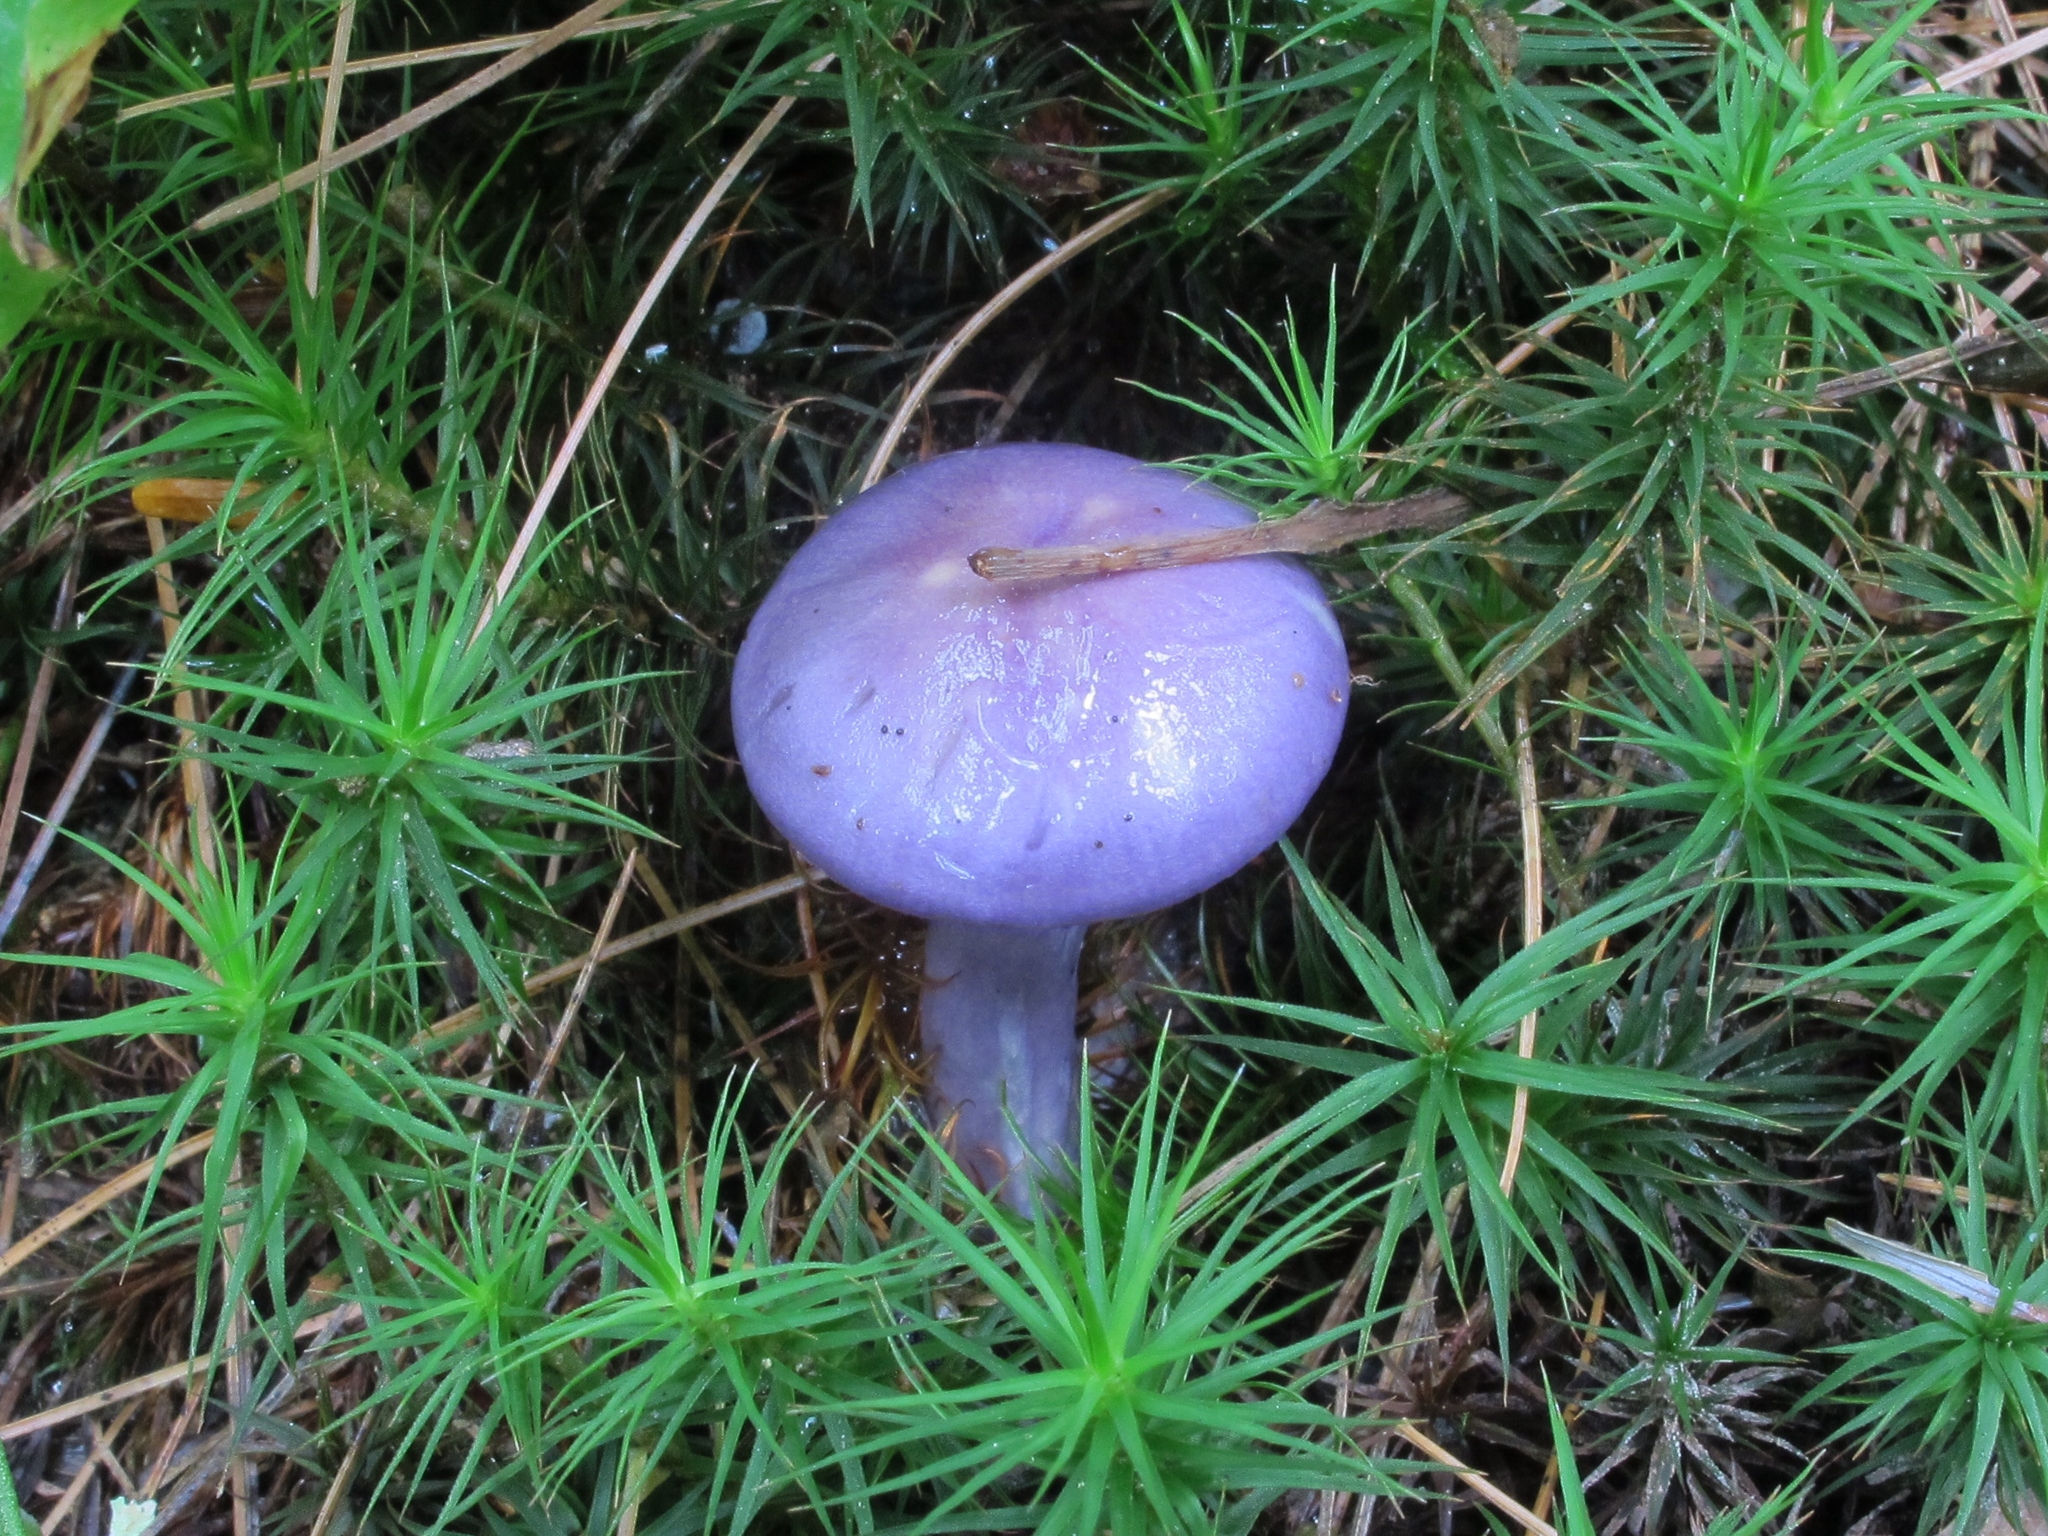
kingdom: Fungi
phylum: Basidiomycota
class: Agaricomycetes
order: Agaricales
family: Cortinariaceae
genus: Cortinarius
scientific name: Cortinarius iodes
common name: Viscid violet cort
